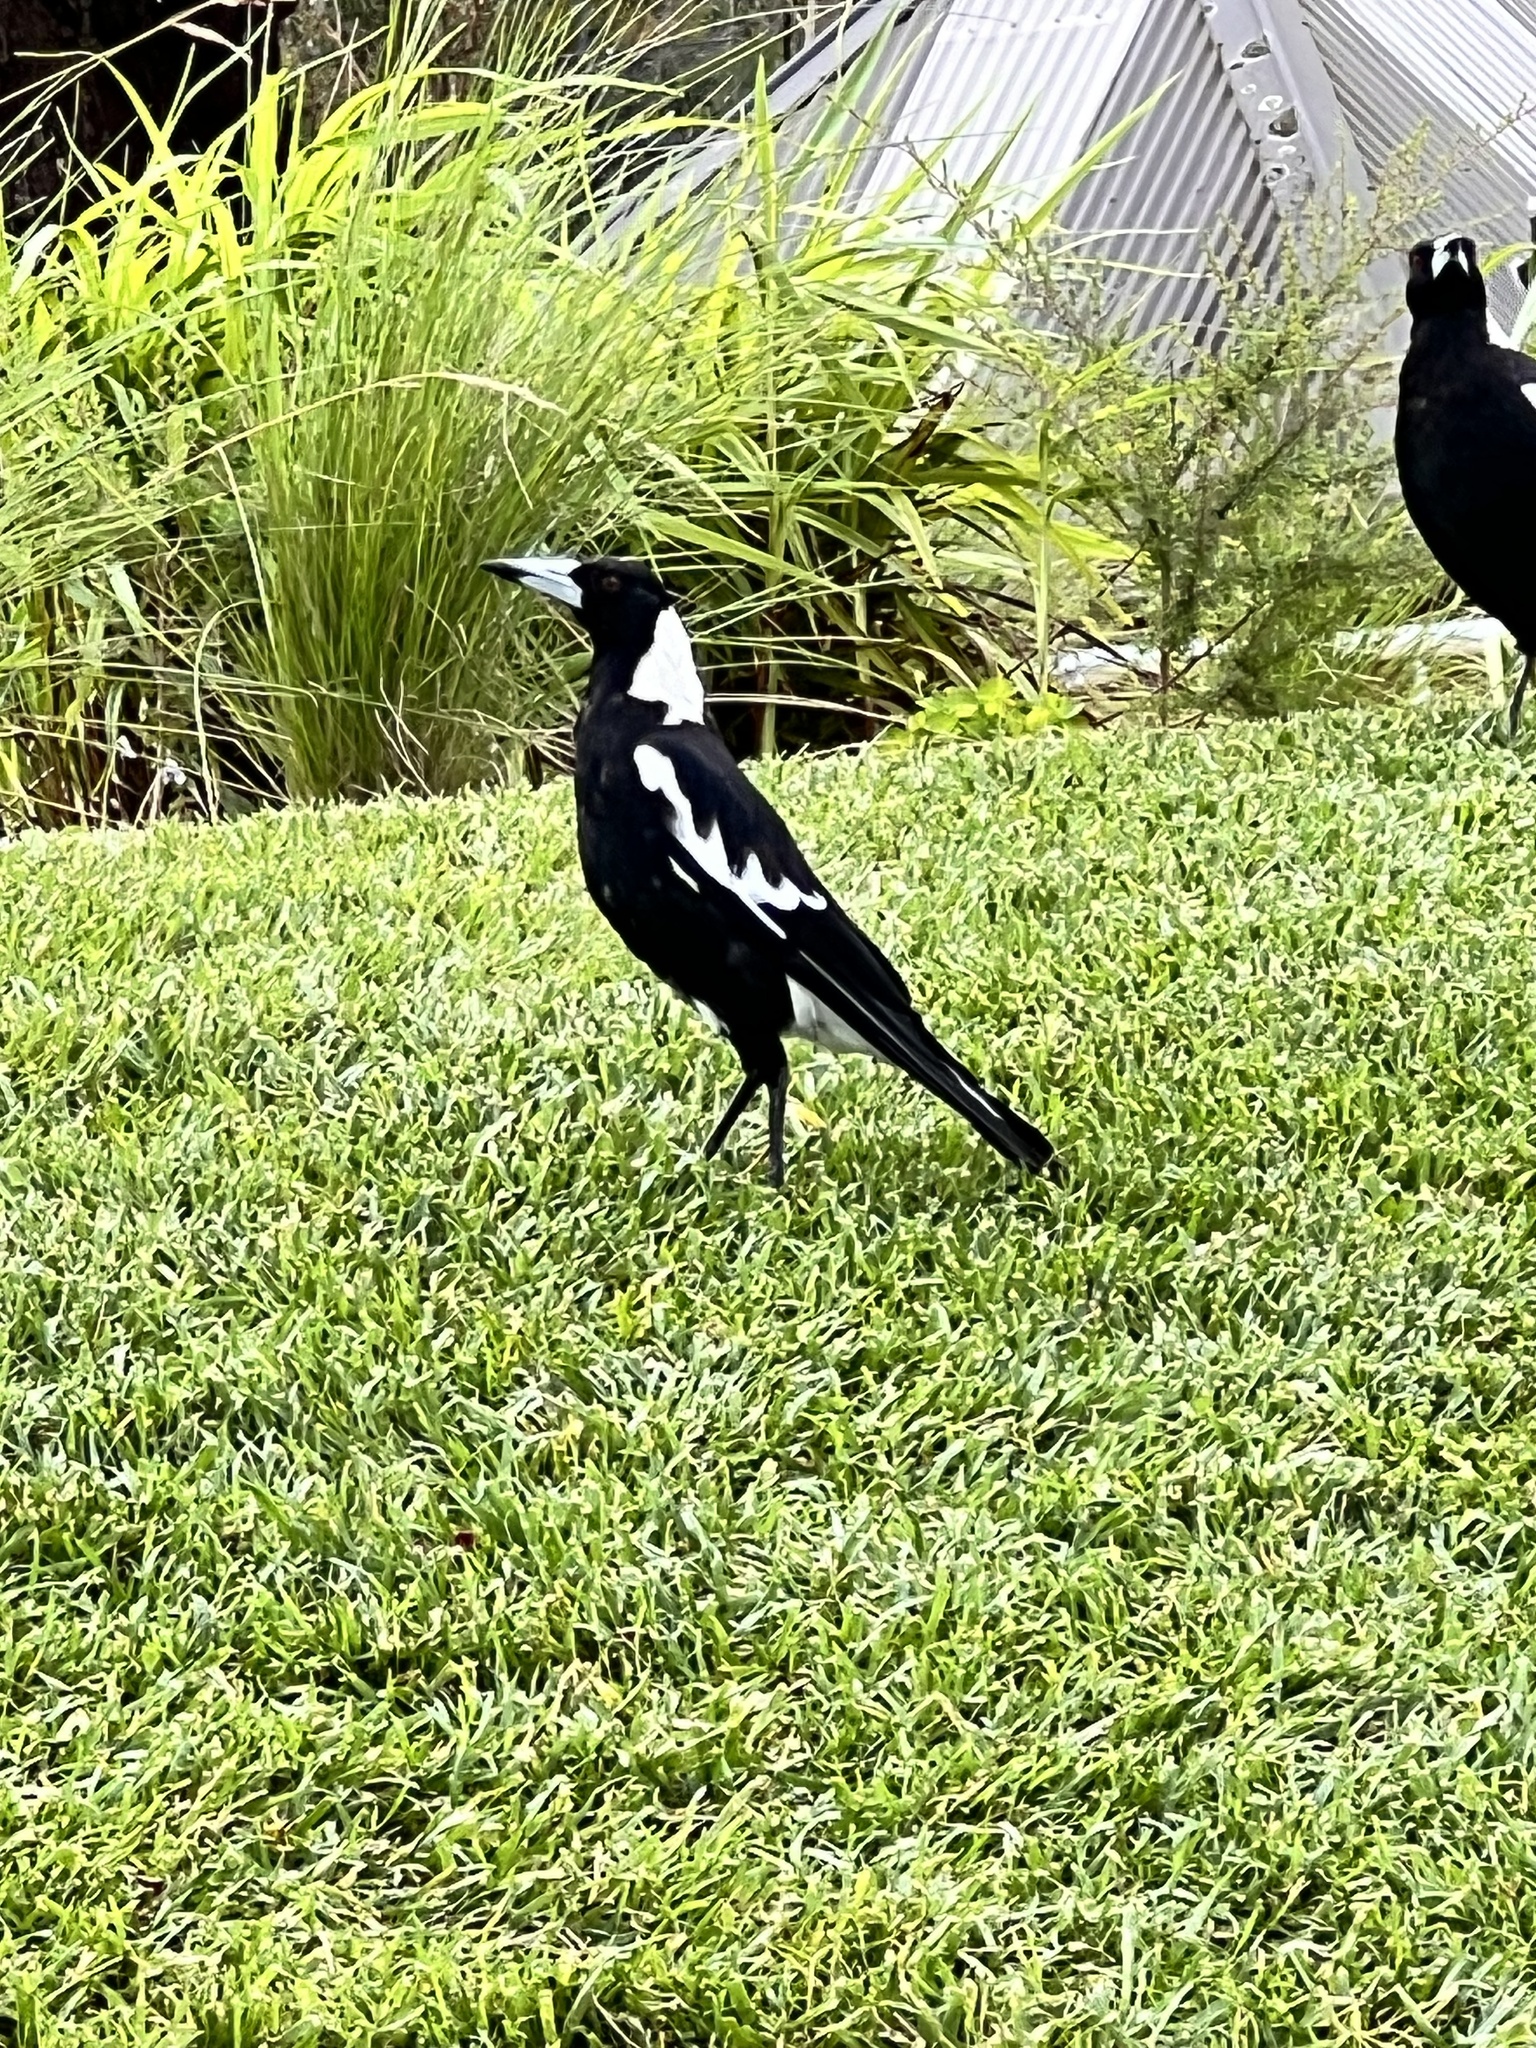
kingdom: Animalia
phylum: Chordata
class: Aves
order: Passeriformes
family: Cracticidae
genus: Gymnorhina
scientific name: Gymnorhina tibicen
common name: Australian magpie
